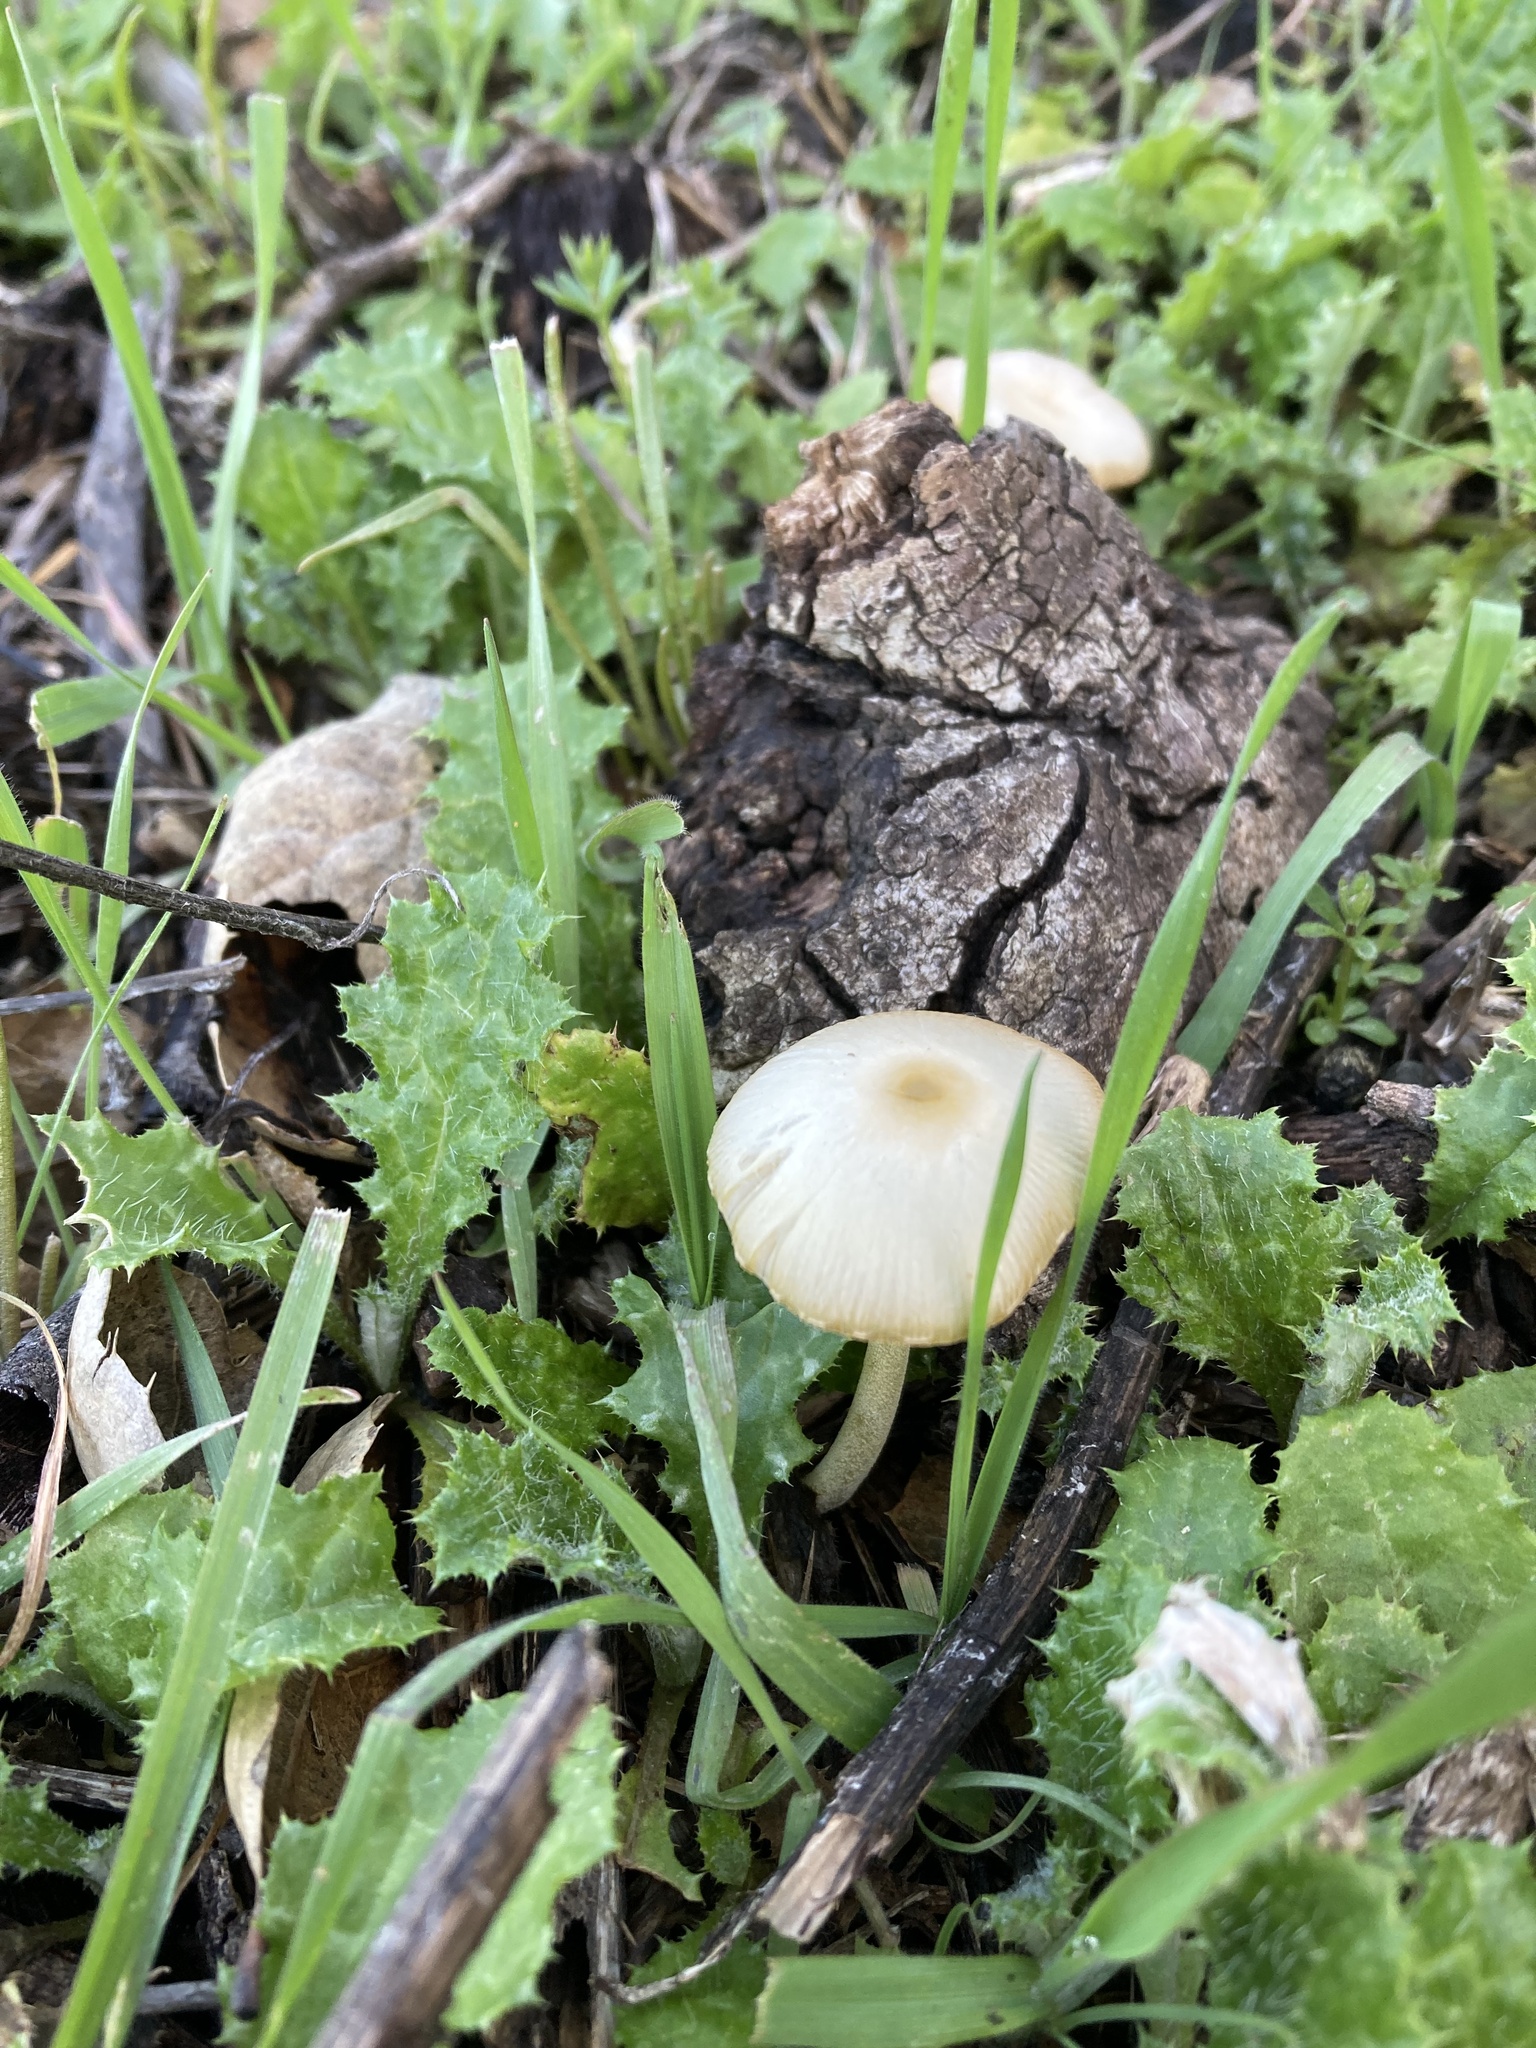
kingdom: Fungi
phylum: Basidiomycota
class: Agaricomycetes
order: Agaricales
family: Bolbitiaceae
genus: Bolbitius
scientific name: Bolbitius titubans
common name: Yellow fieldcap
